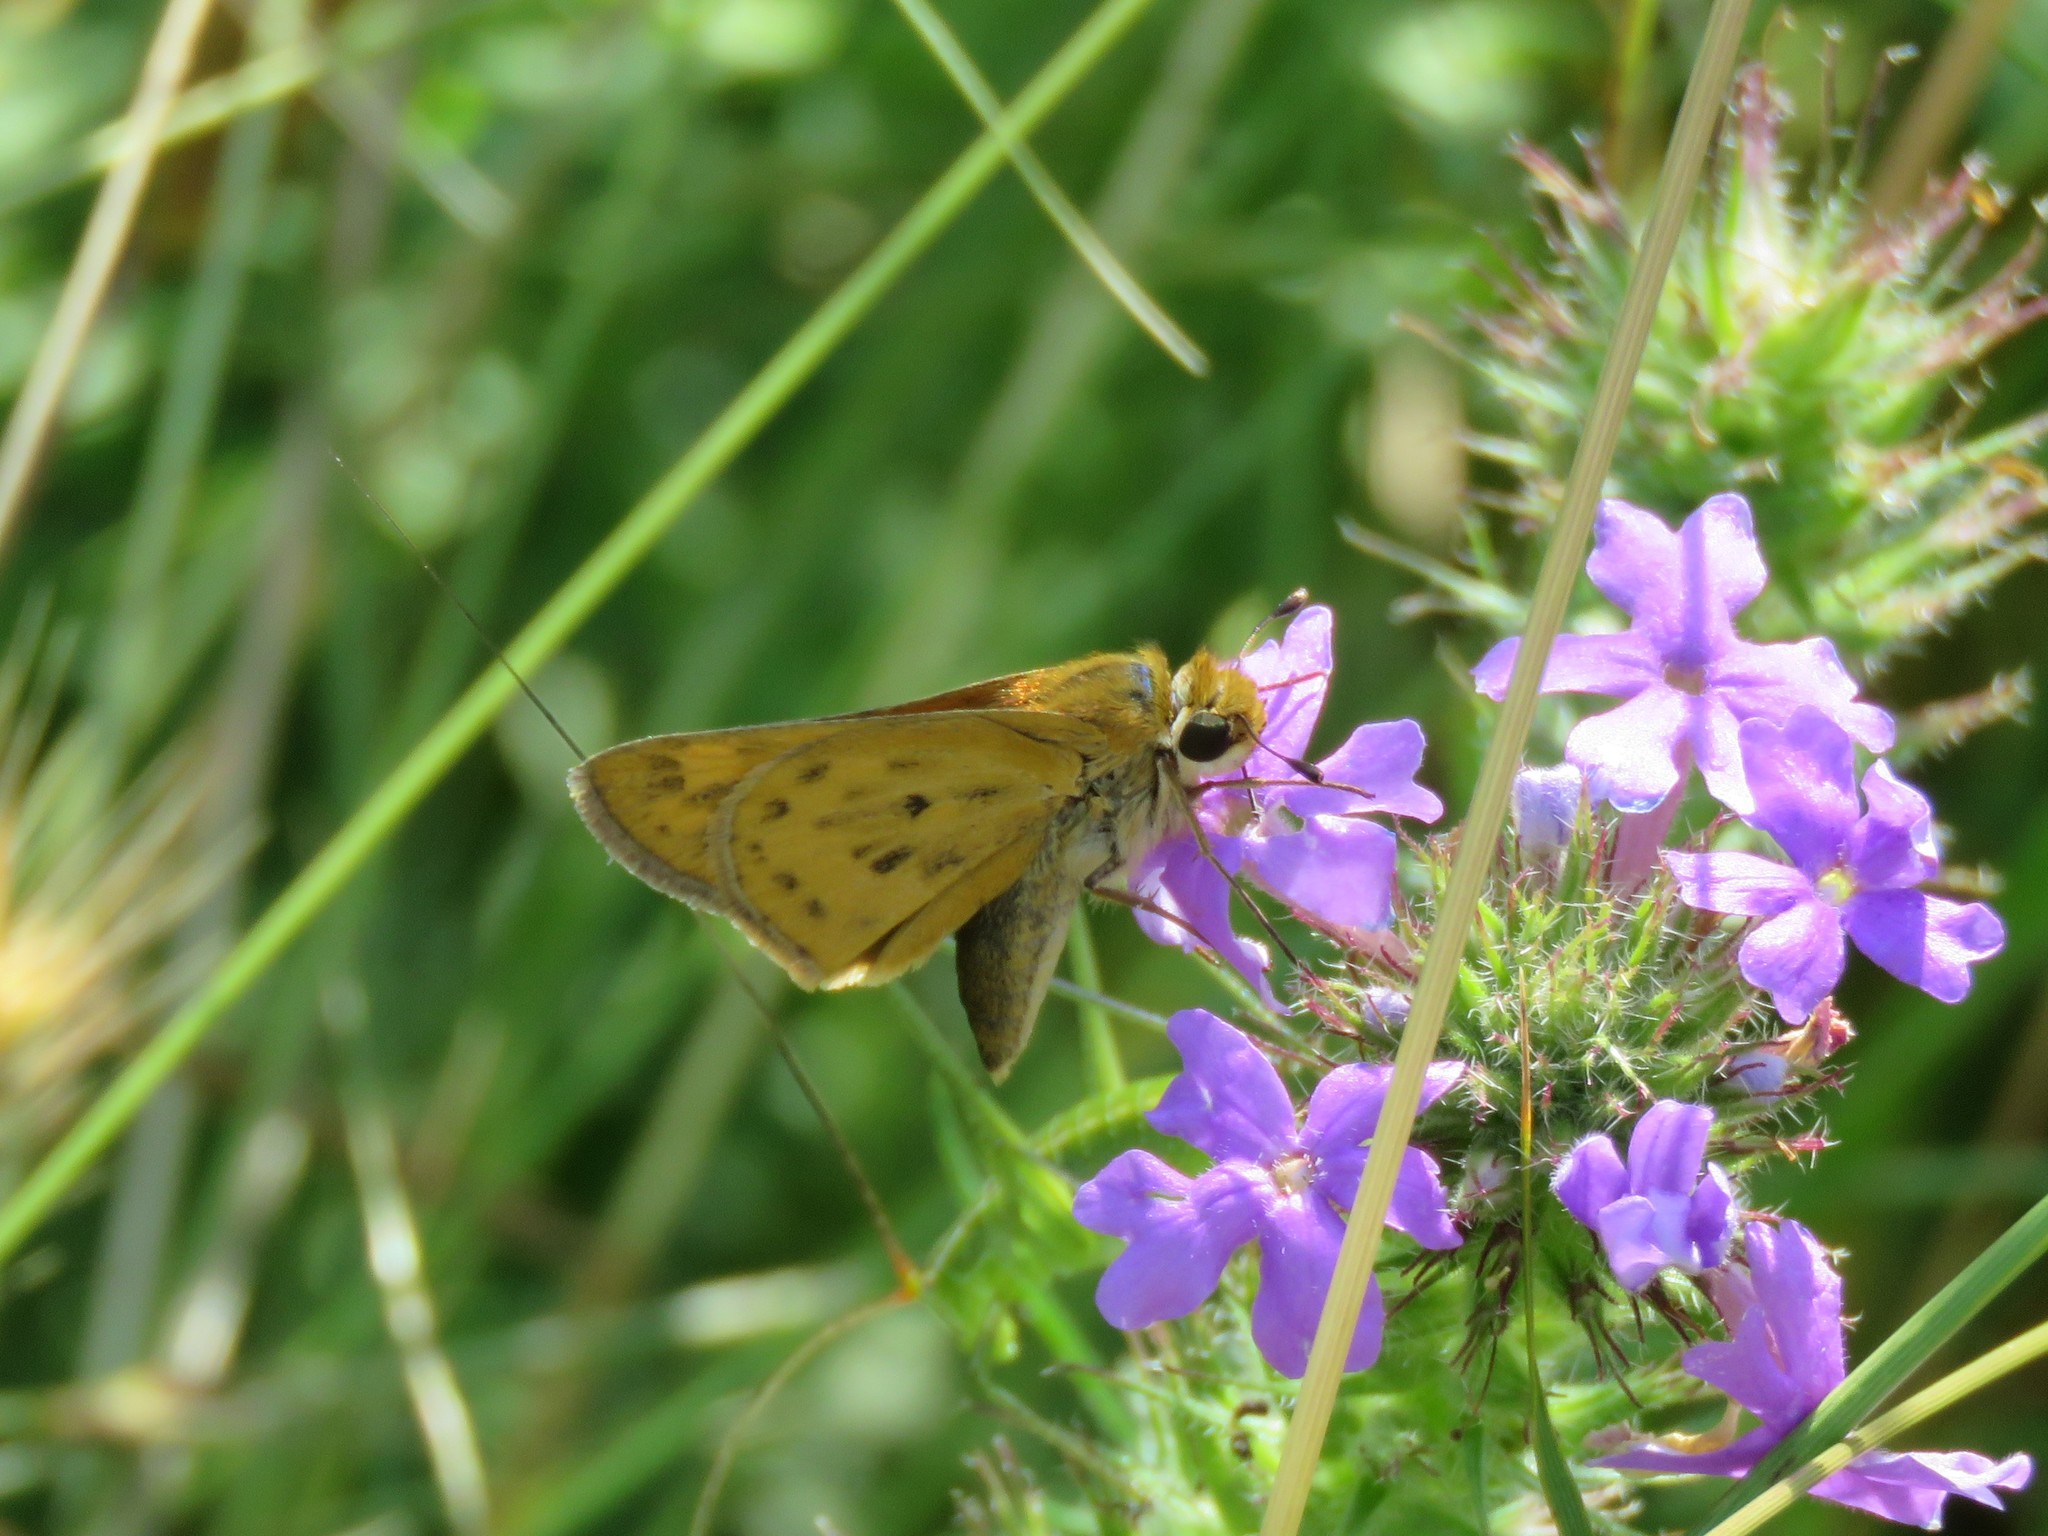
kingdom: Animalia
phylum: Arthropoda
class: Insecta
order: Lepidoptera
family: Hesperiidae
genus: Hylephila
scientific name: Hylephila phyleus
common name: Fiery skipper
